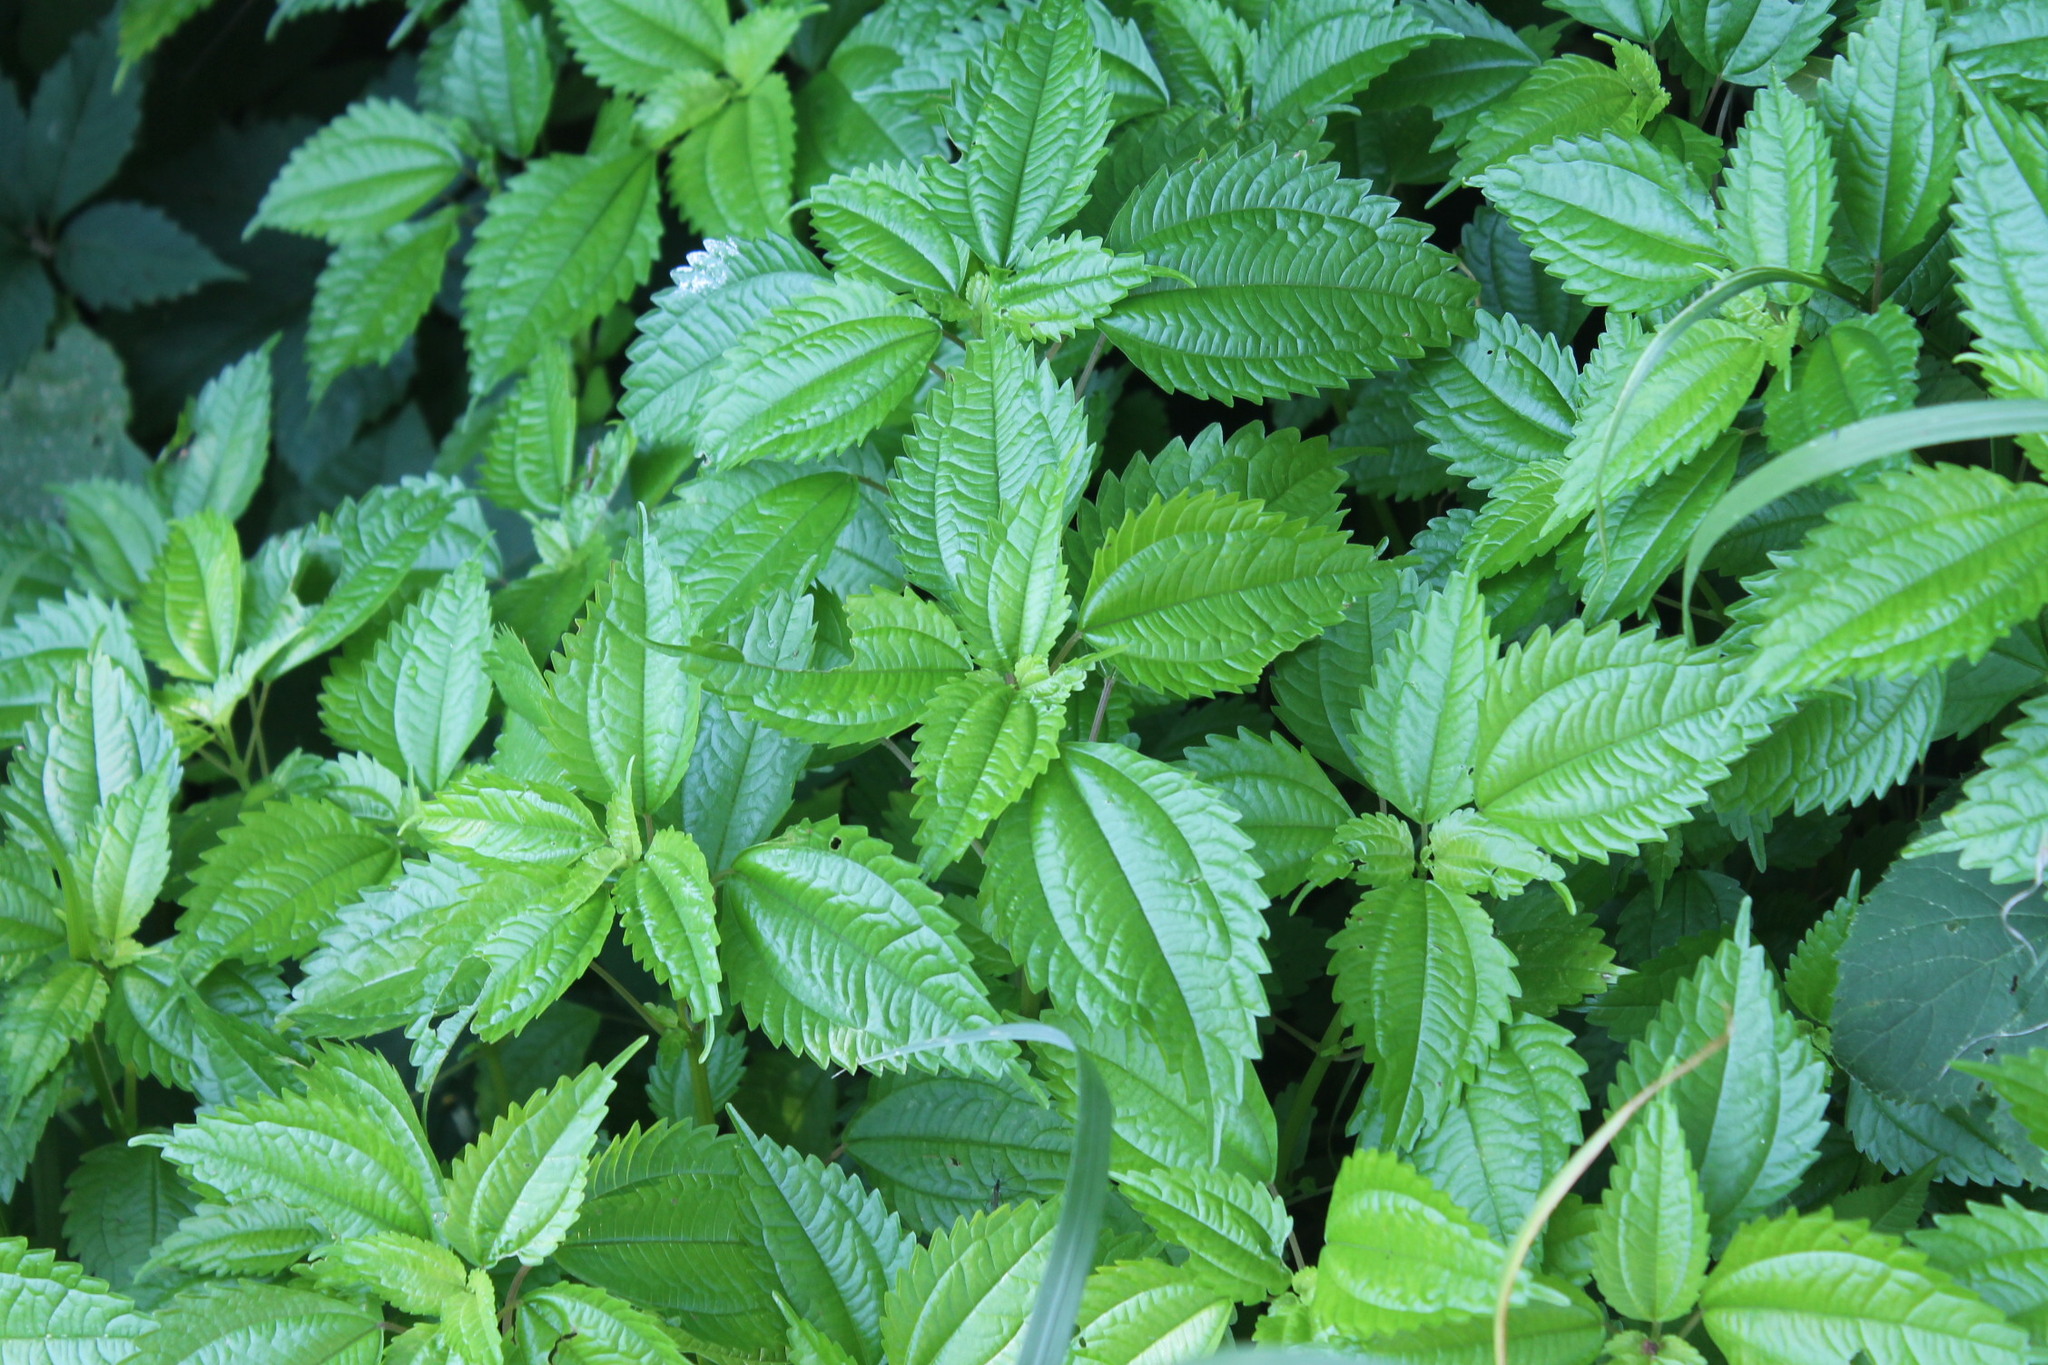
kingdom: Plantae
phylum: Tracheophyta
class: Magnoliopsida
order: Rosales
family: Urticaceae
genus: Pilea
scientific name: Pilea pumila
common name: Clearweed
